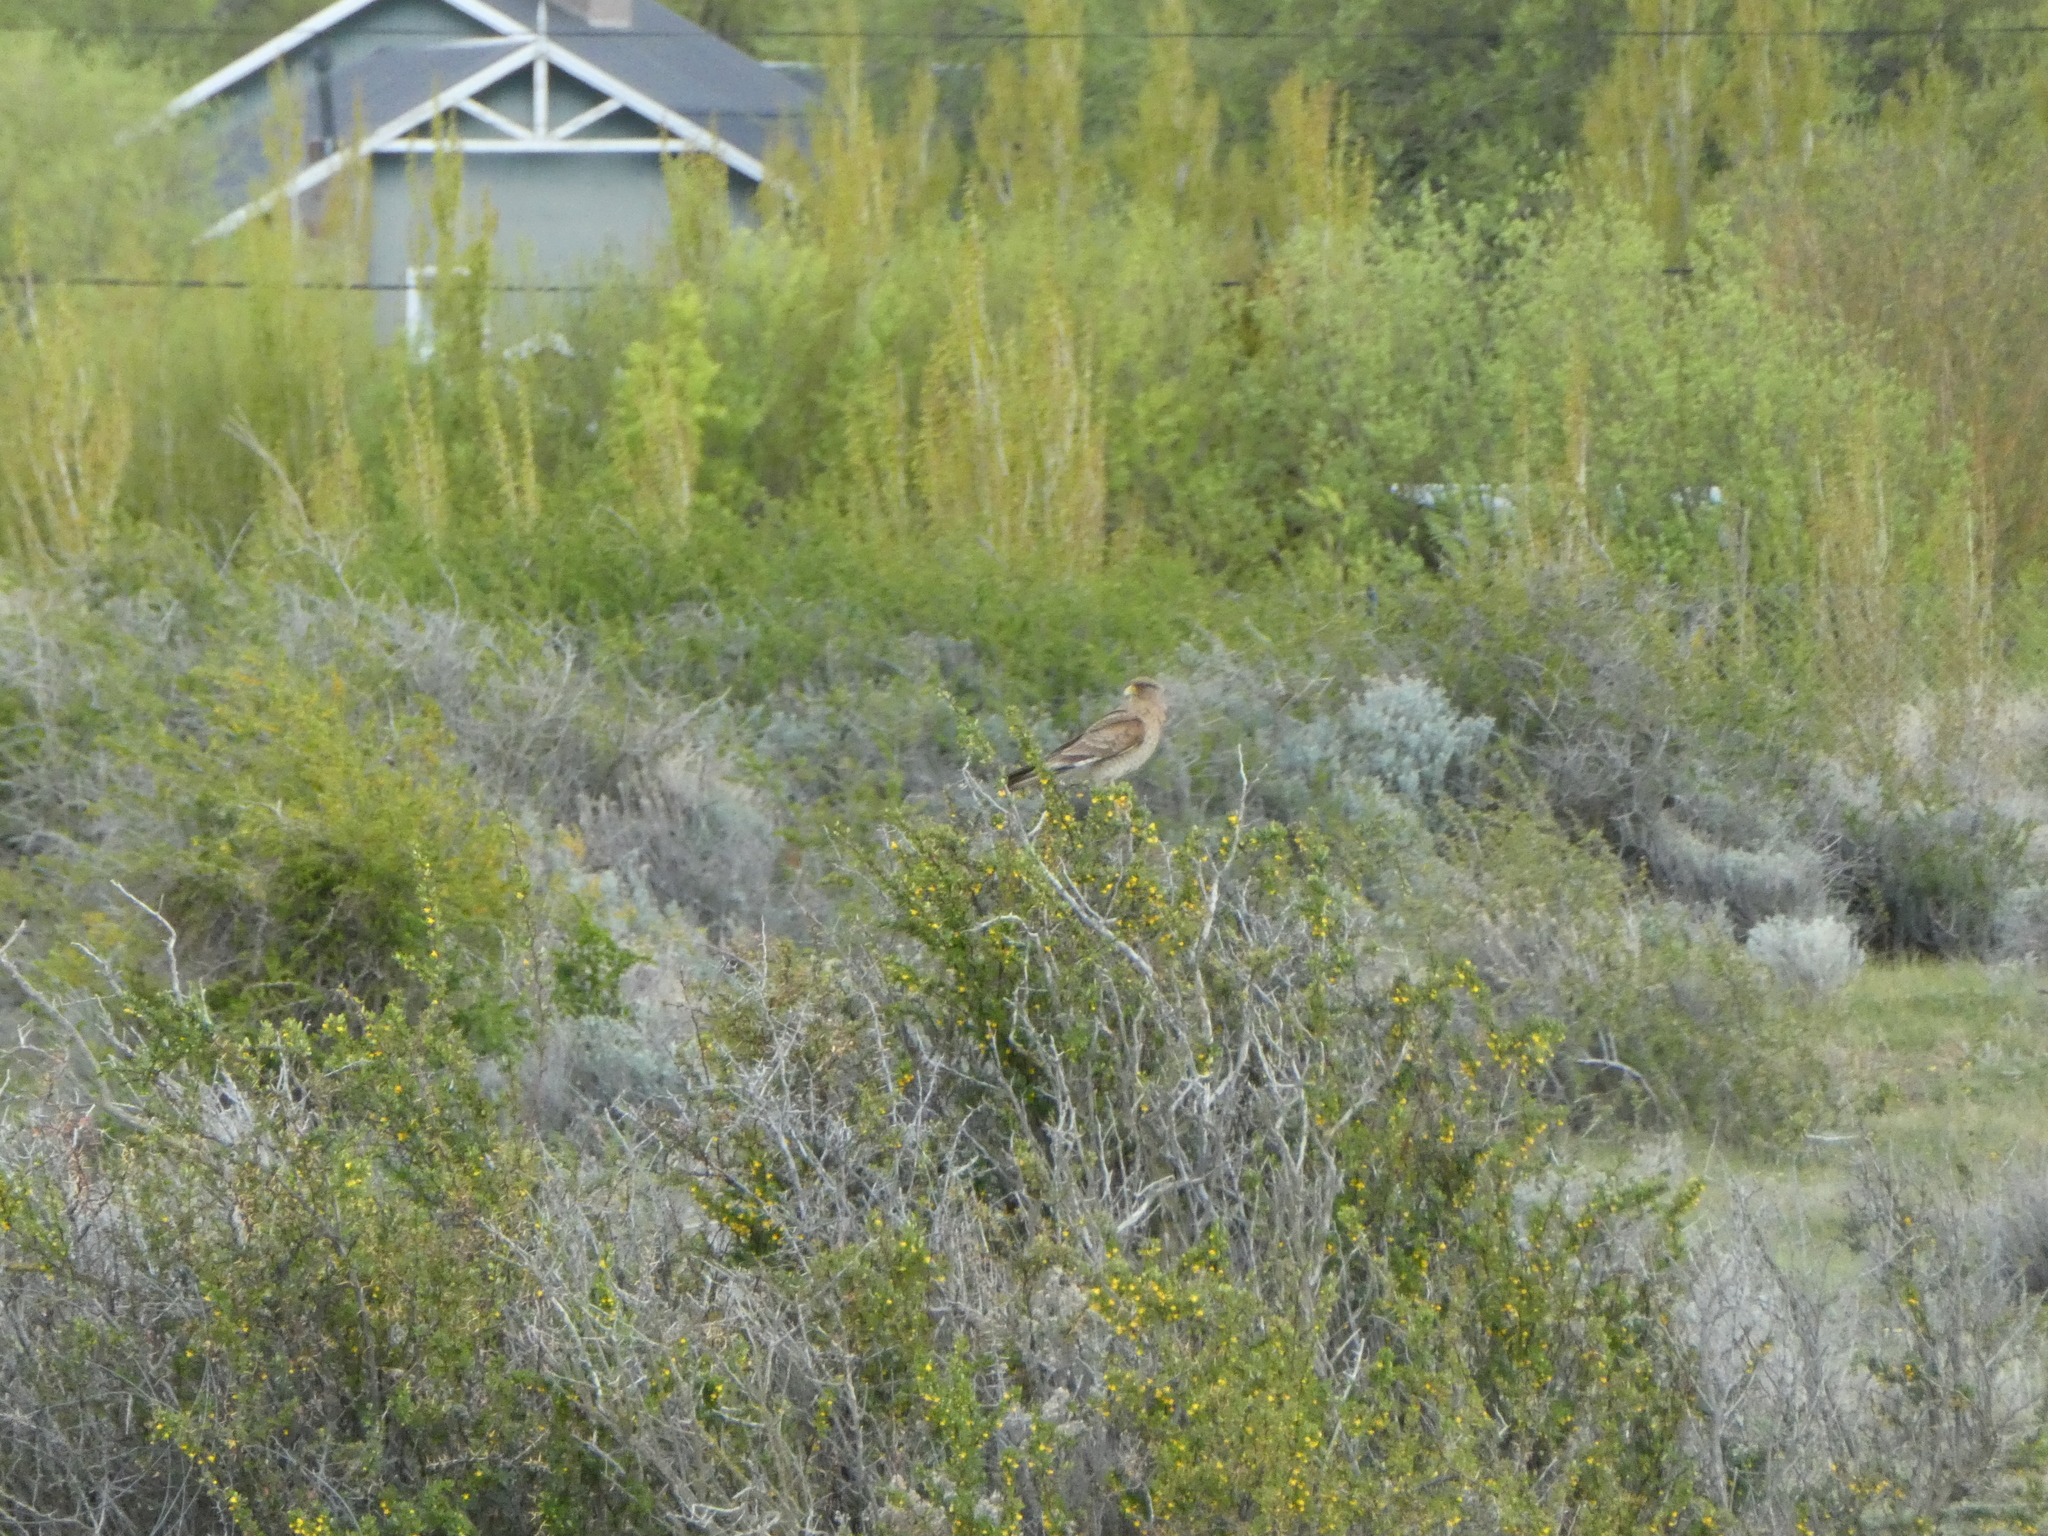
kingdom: Animalia
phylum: Chordata
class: Aves
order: Falconiformes
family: Falconidae
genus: Daptrius
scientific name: Daptrius
